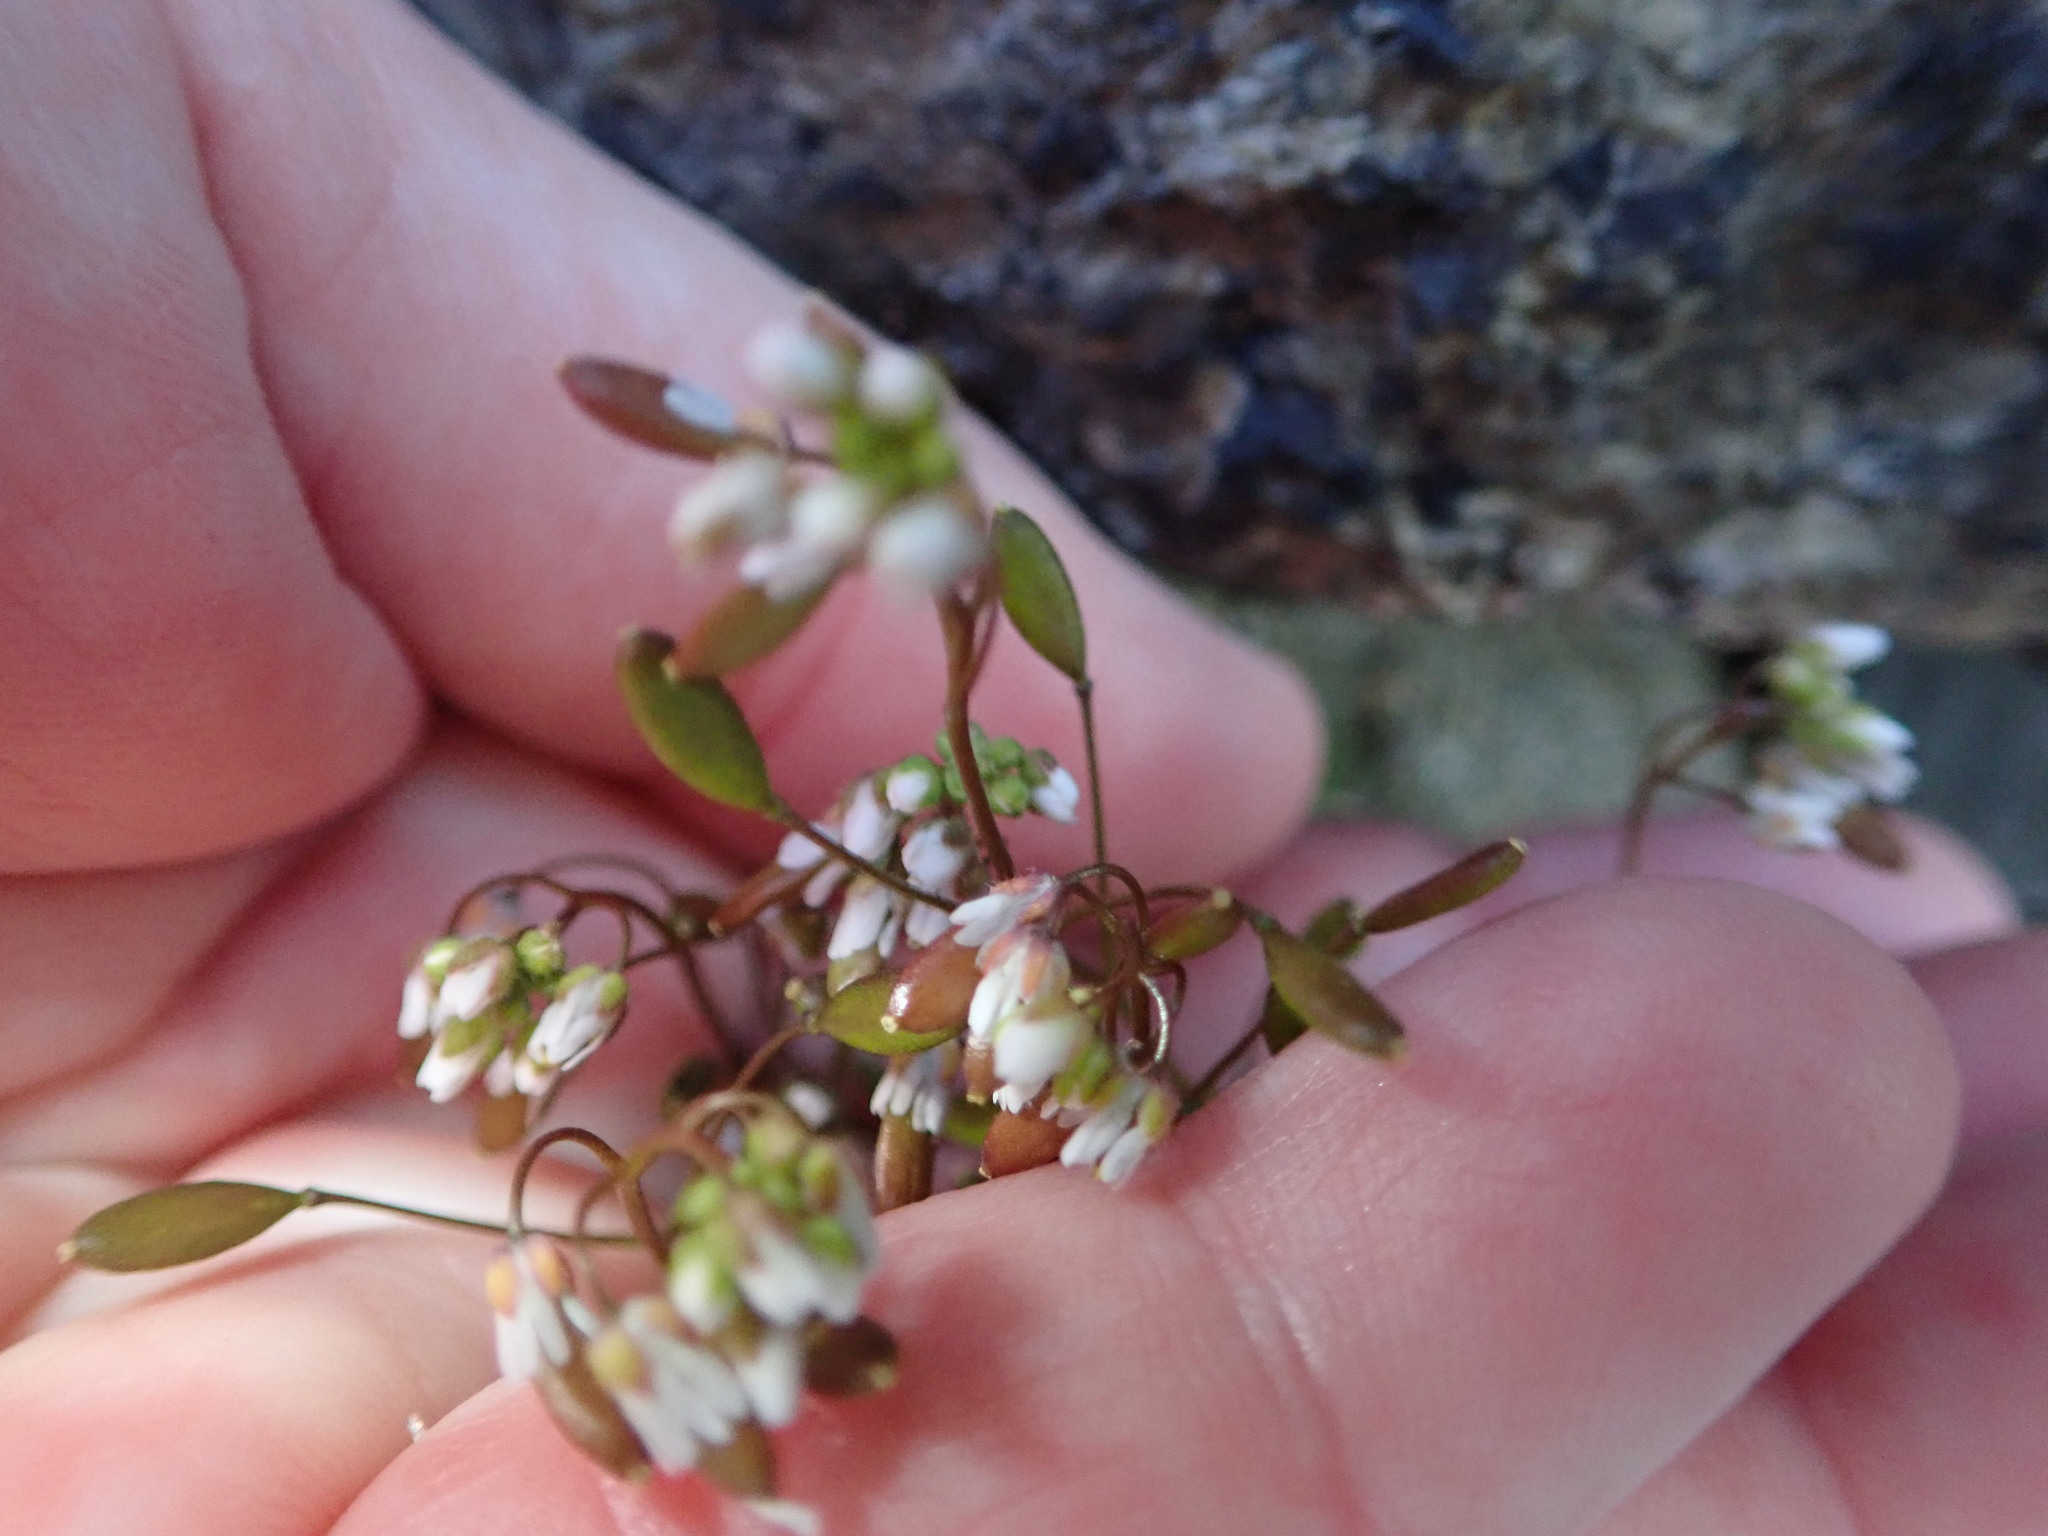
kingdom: Plantae
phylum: Tracheophyta
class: Magnoliopsida
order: Brassicales
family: Brassicaceae
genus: Draba
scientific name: Draba verna
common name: Spring draba
